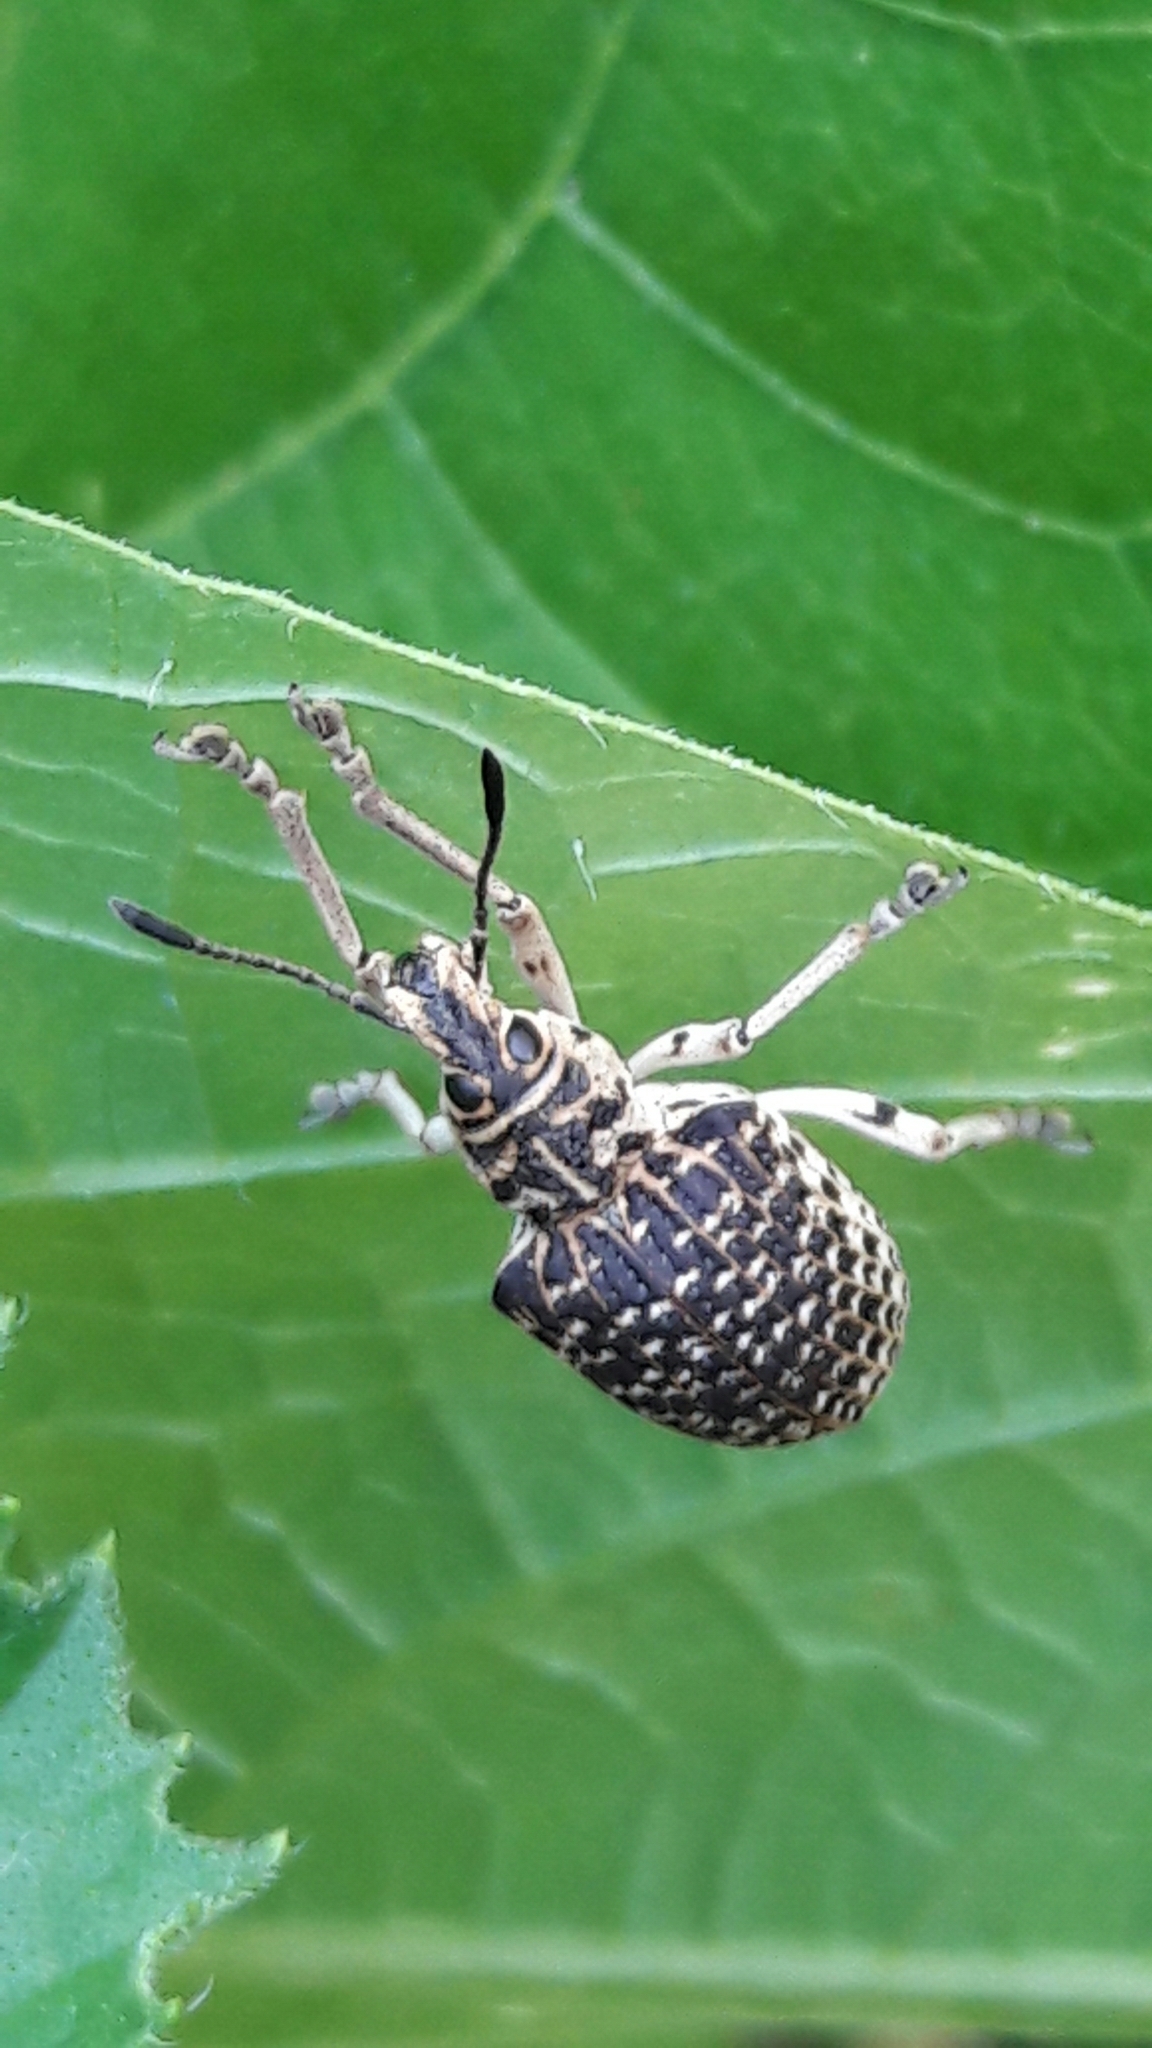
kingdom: Animalia
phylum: Arthropoda
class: Insecta
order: Coleoptera
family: Curculionidae
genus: Cydianerus
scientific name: Cydianerus latruncularius
